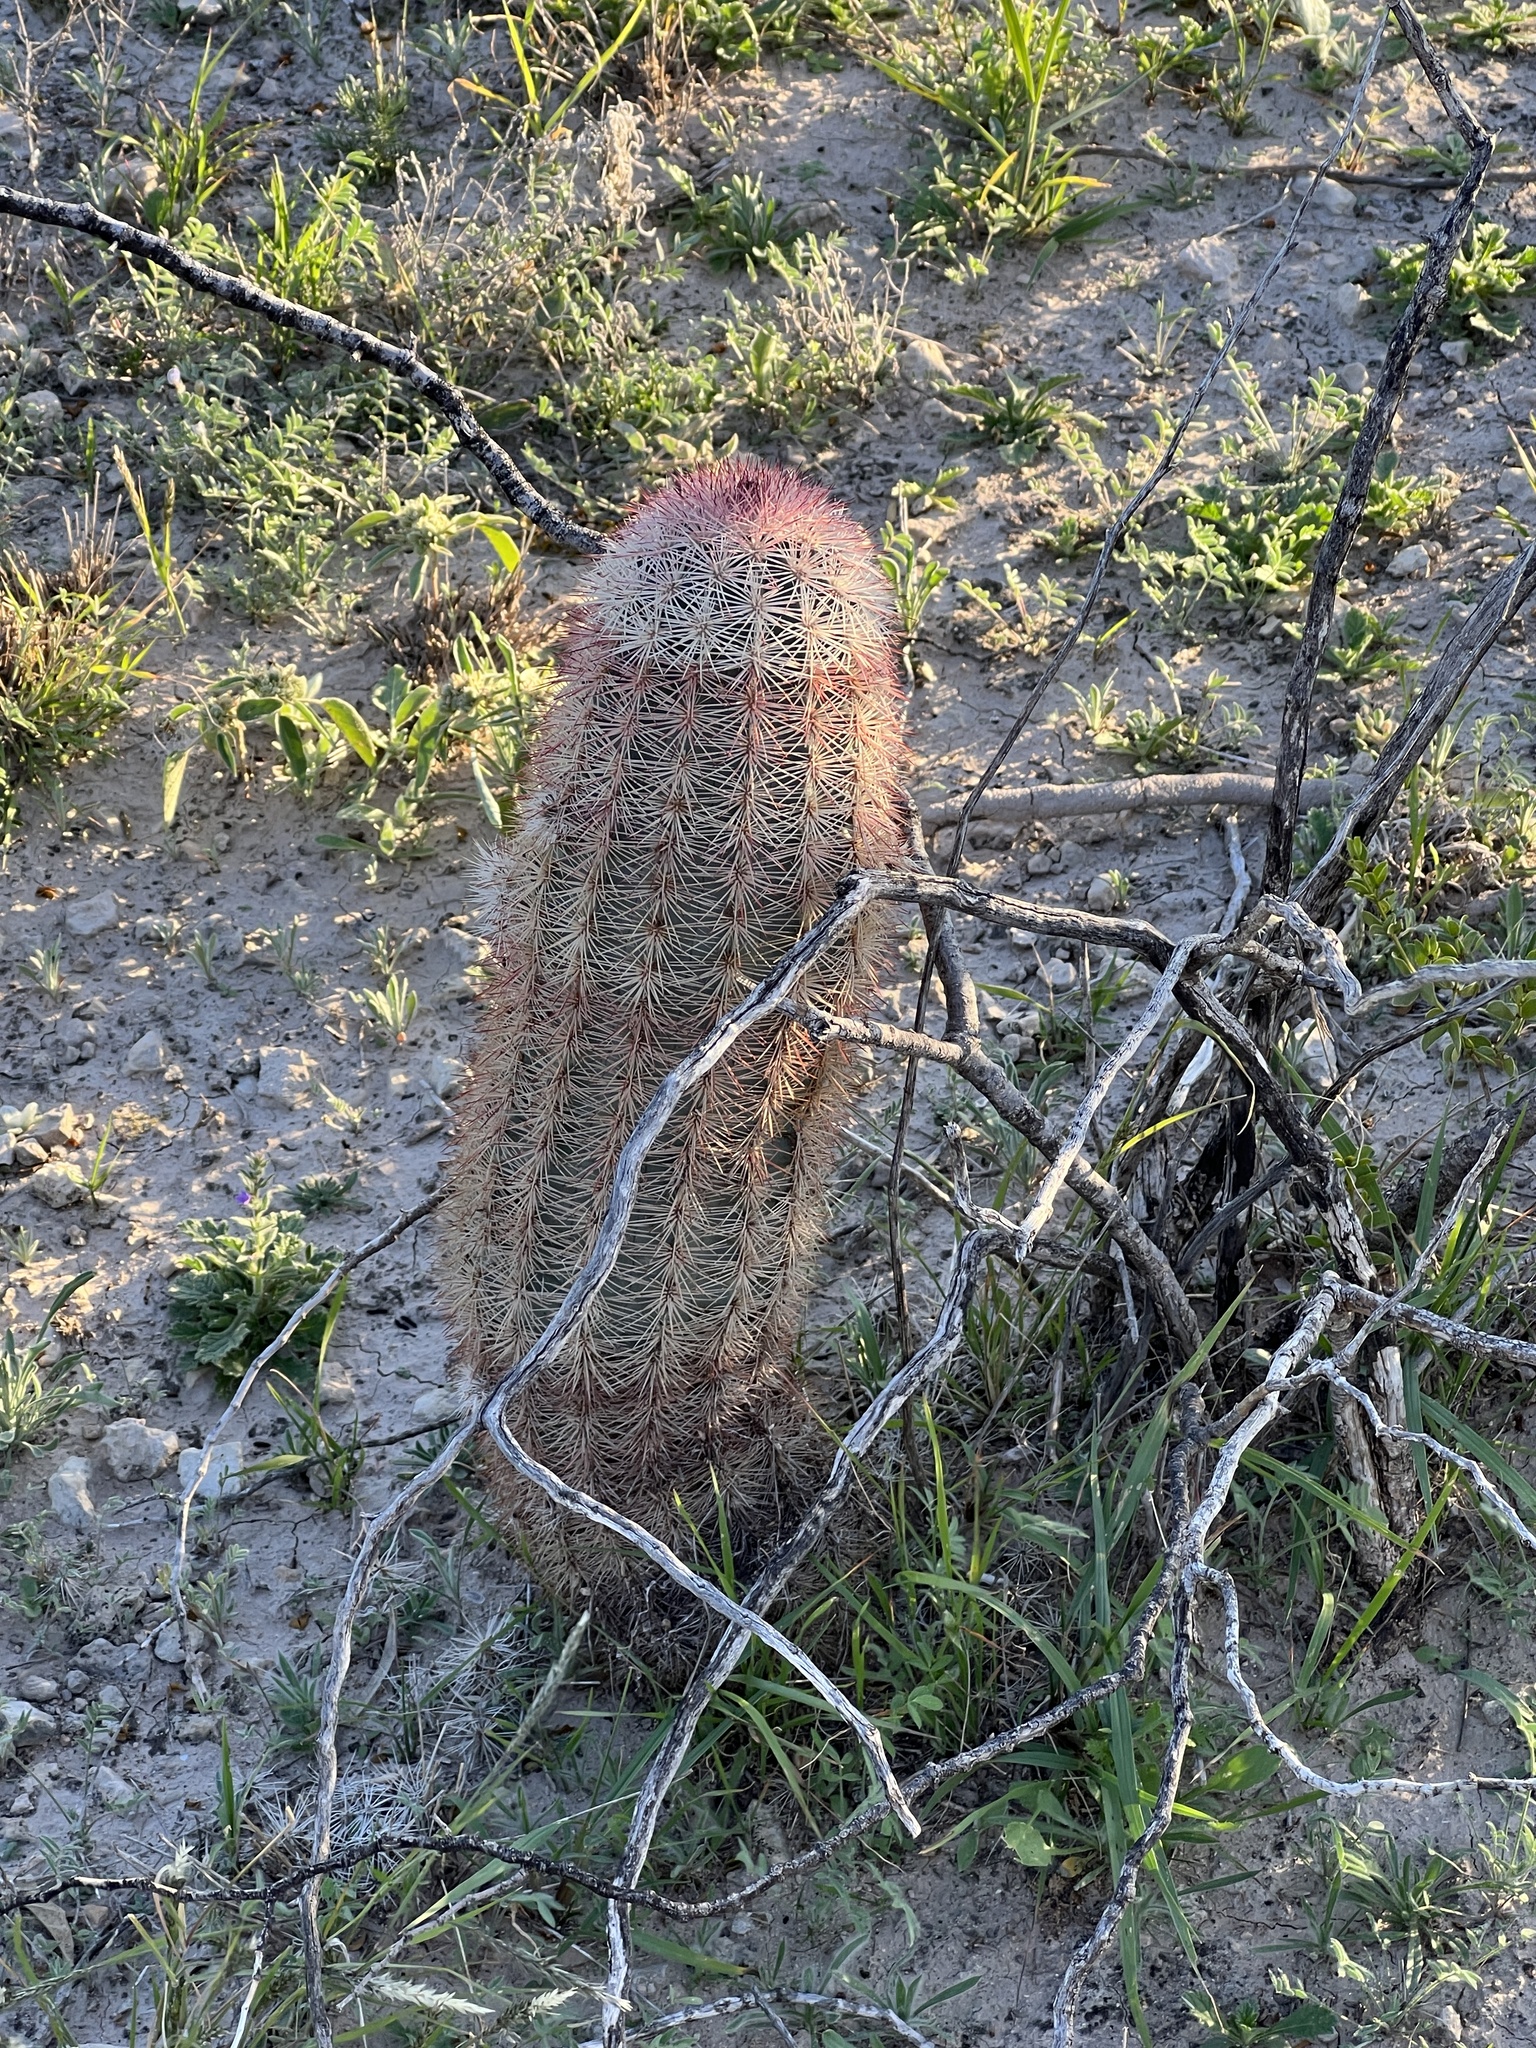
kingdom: Plantae
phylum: Tracheophyta
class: Magnoliopsida
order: Caryophyllales
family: Cactaceae
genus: Echinocereus
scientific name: Echinocereus dasyacanthus
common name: Spiny hedgehog cactus
